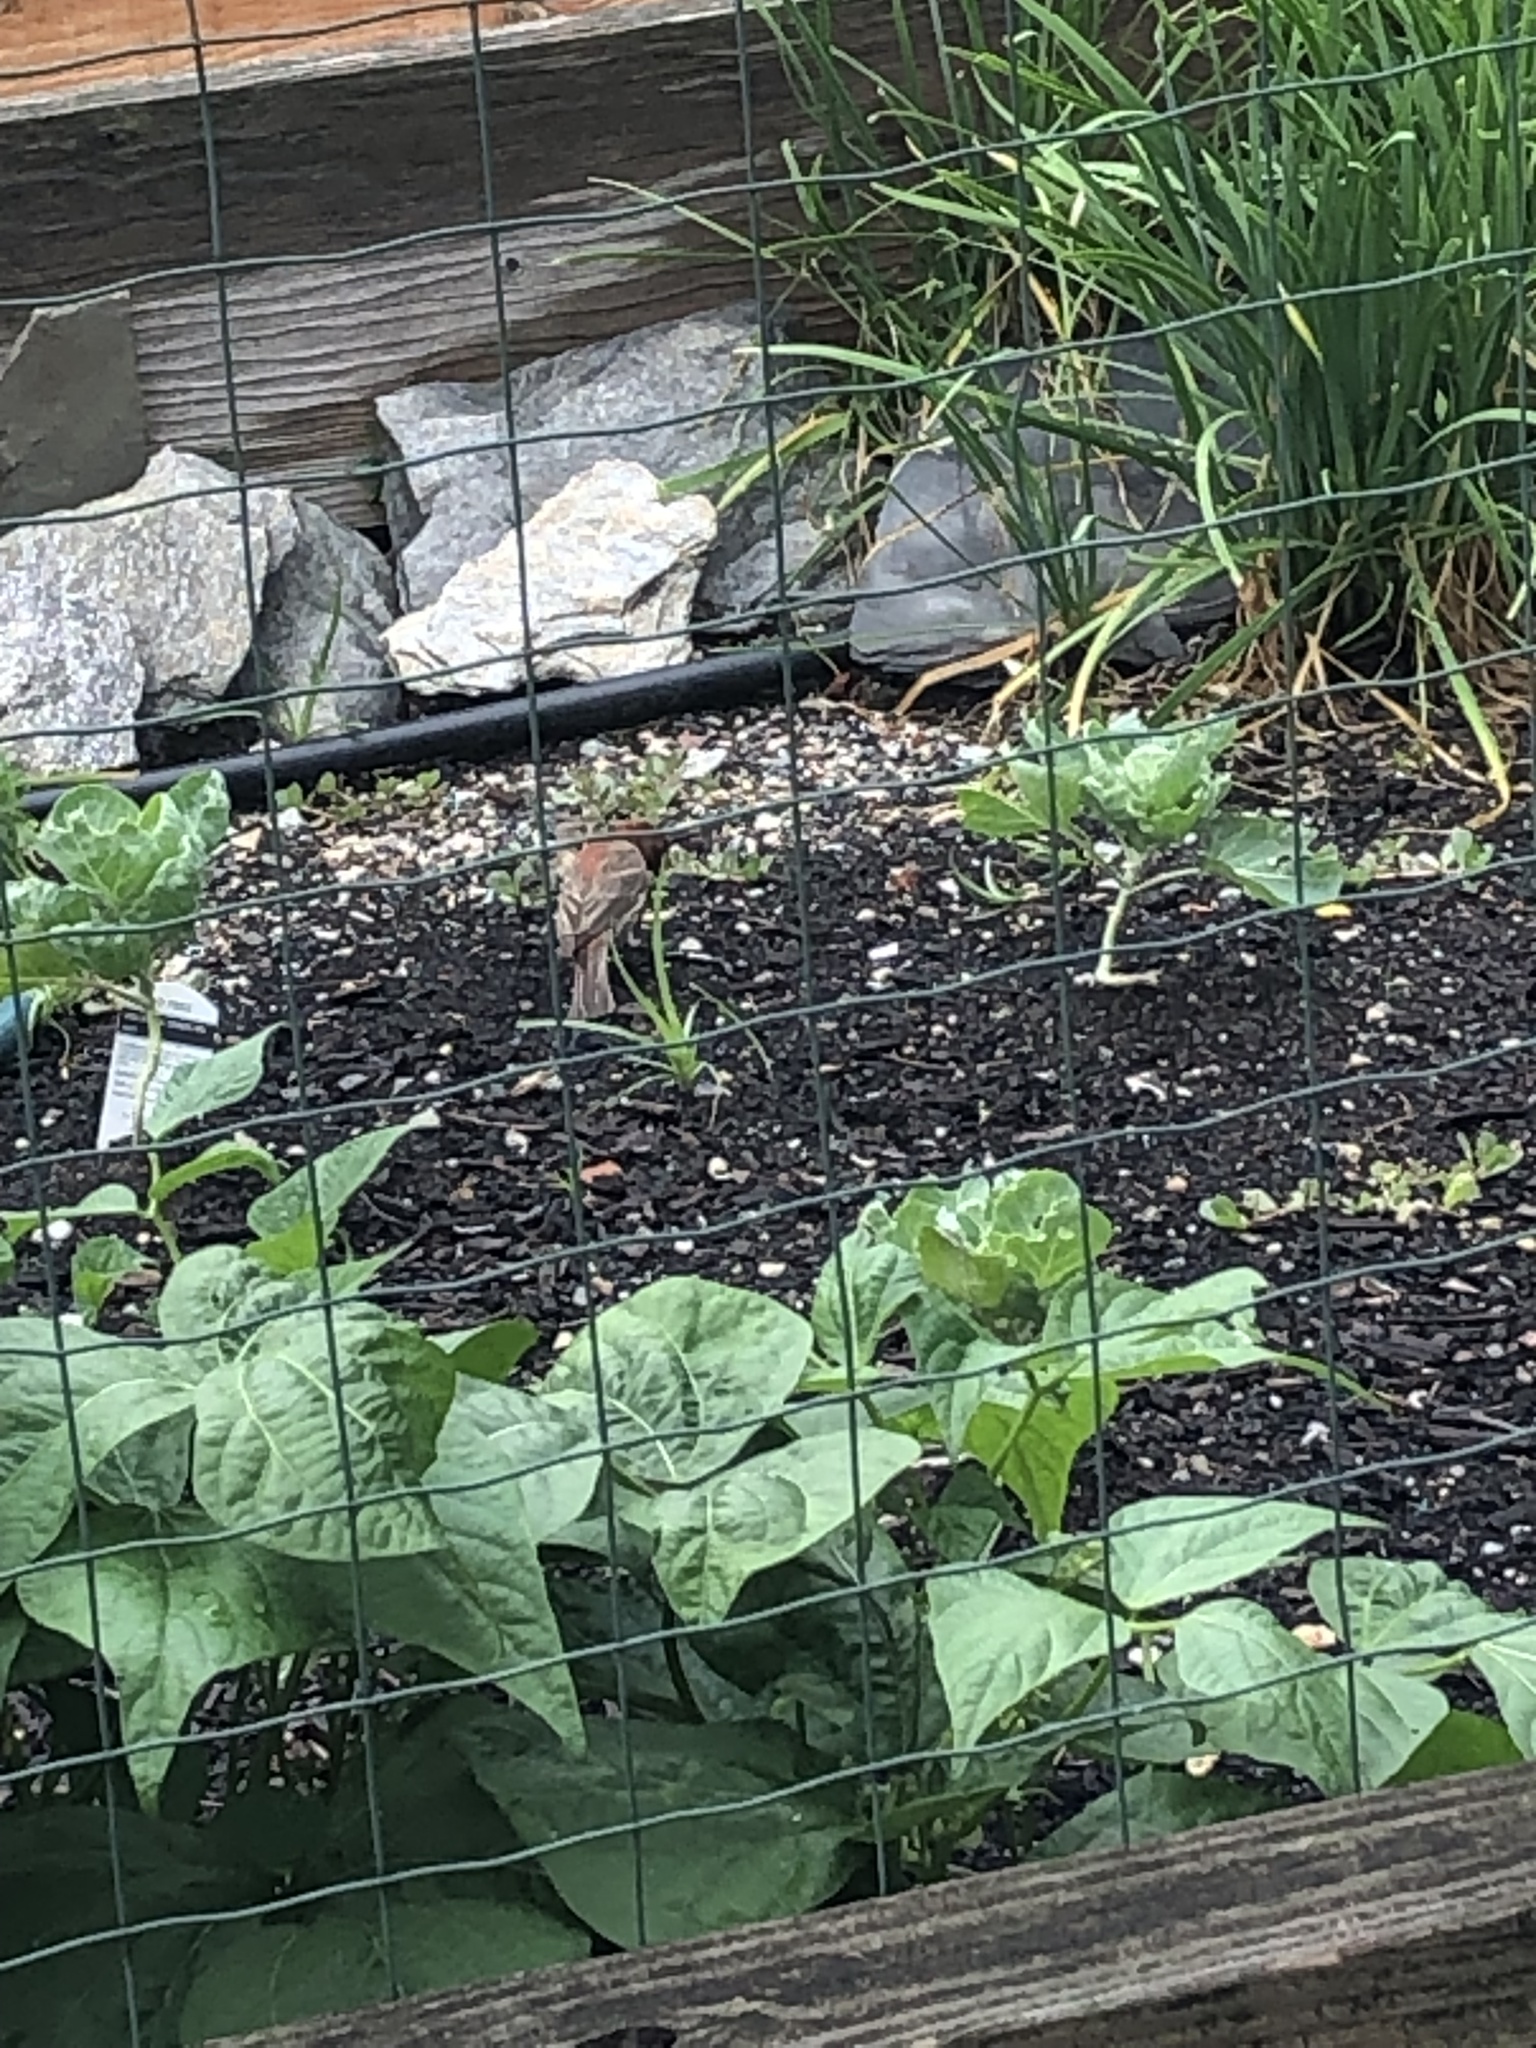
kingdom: Animalia
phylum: Chordata
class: Aves
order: Passeriformes
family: Fringillidae
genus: Haemorhous
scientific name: Haemorhous mexicanus
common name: House finch
